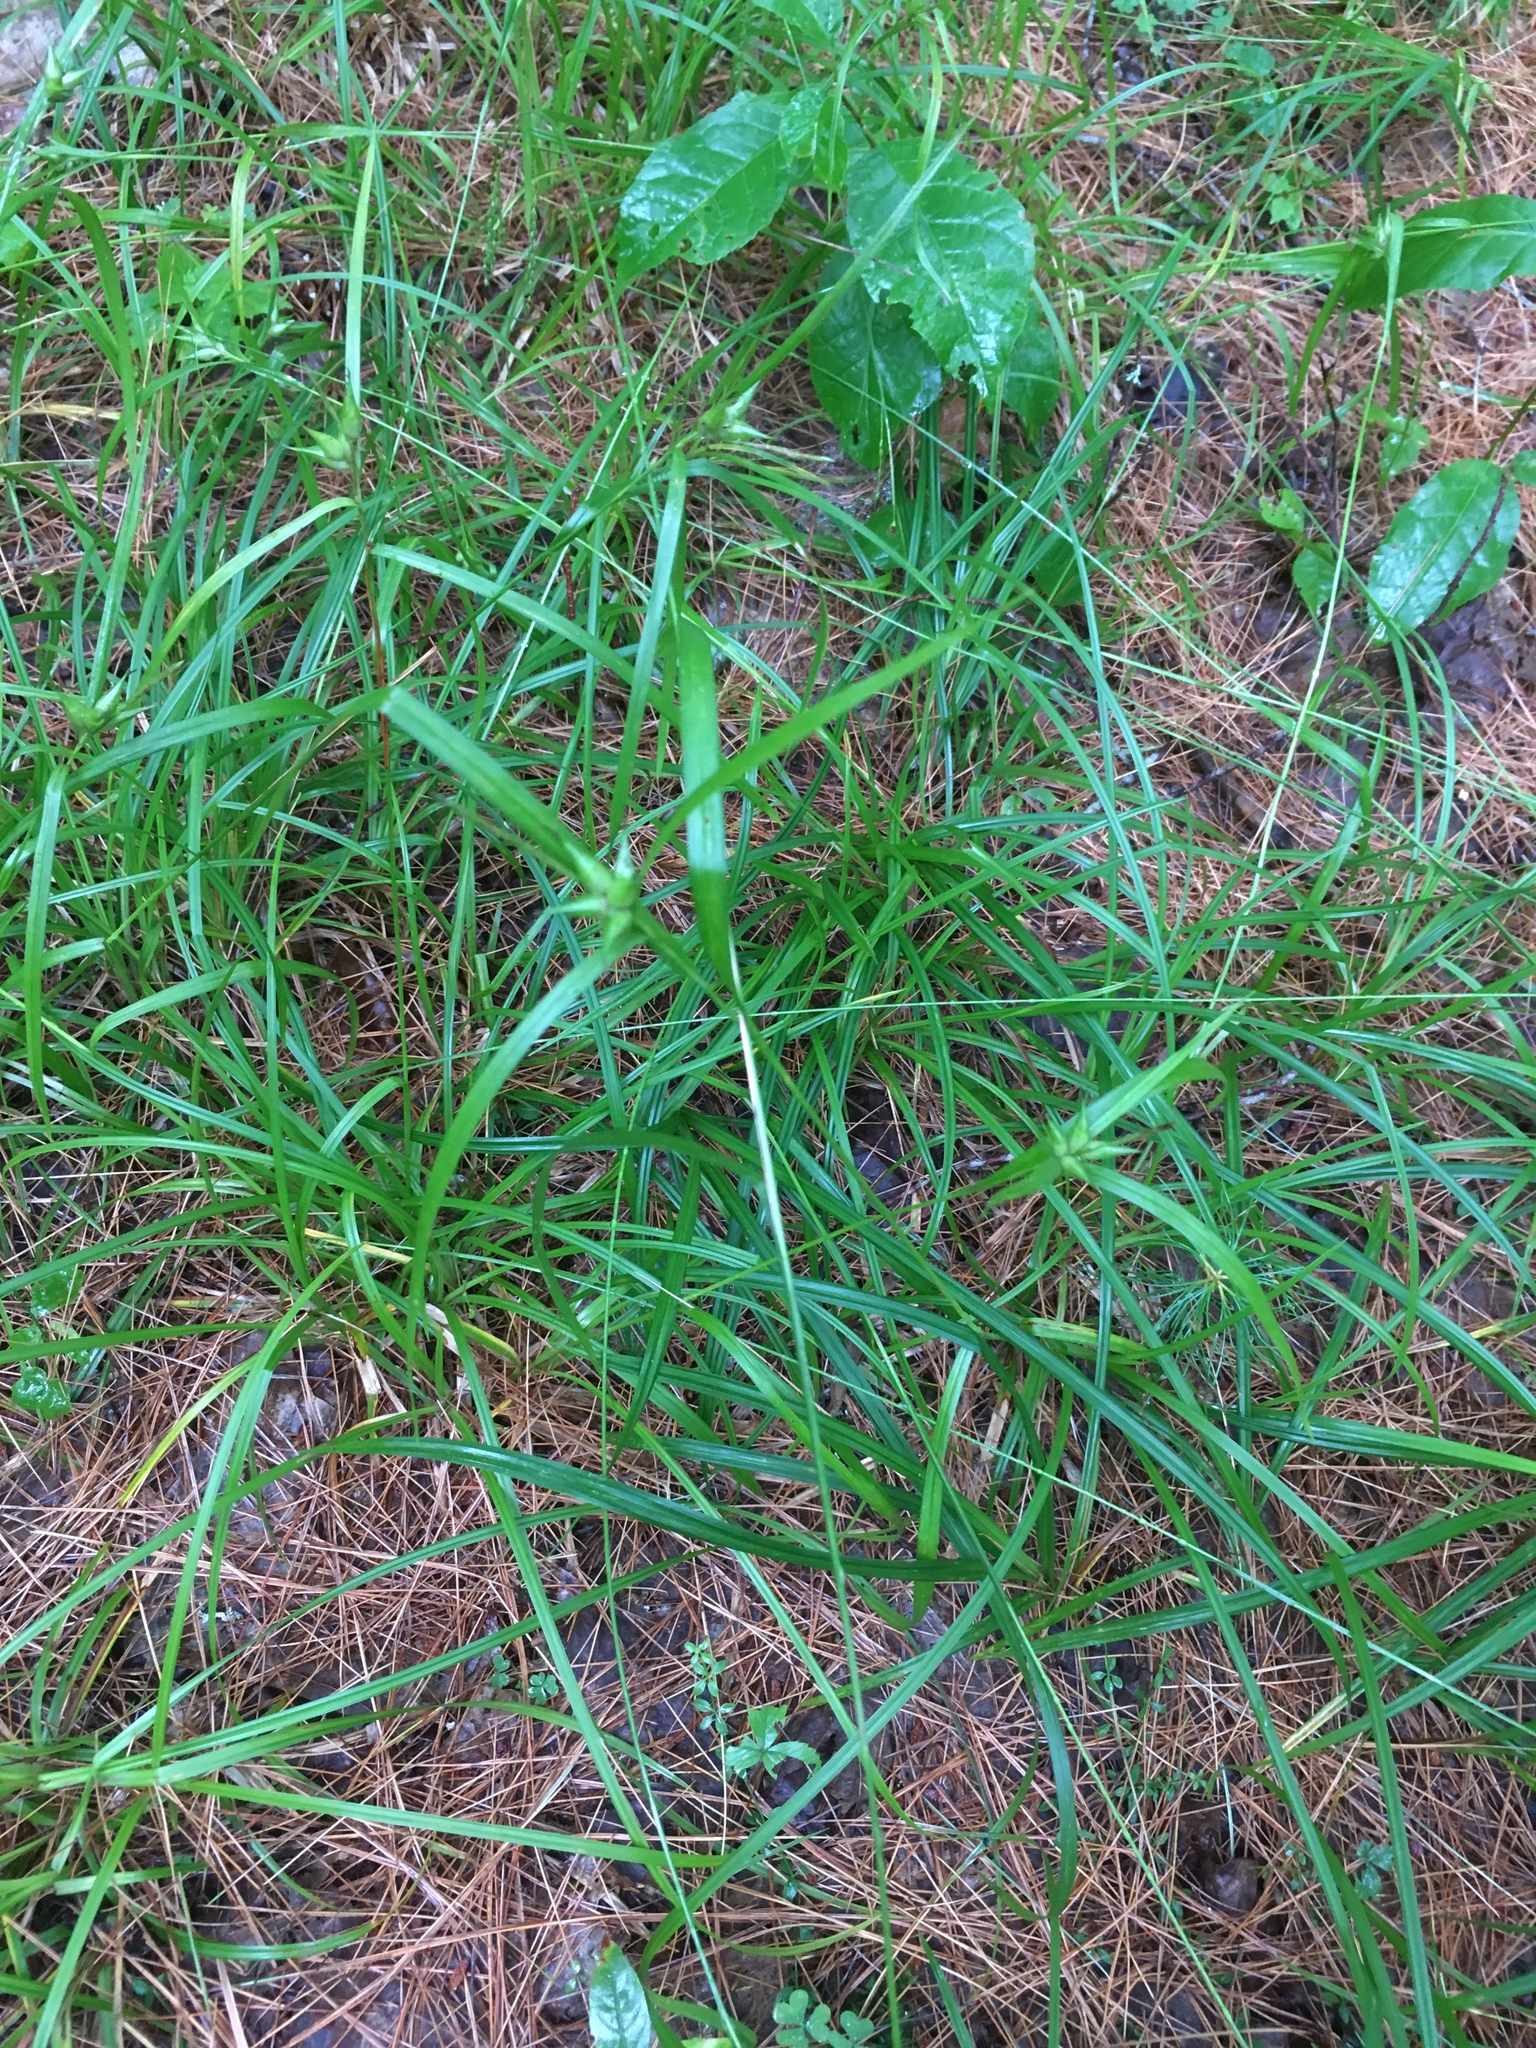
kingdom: Plantae
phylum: Tracheophyta
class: Liliopsida
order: Poales
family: Cyperaceae
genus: Carex
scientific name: Carex intumescens
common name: Greater bladder sedge
